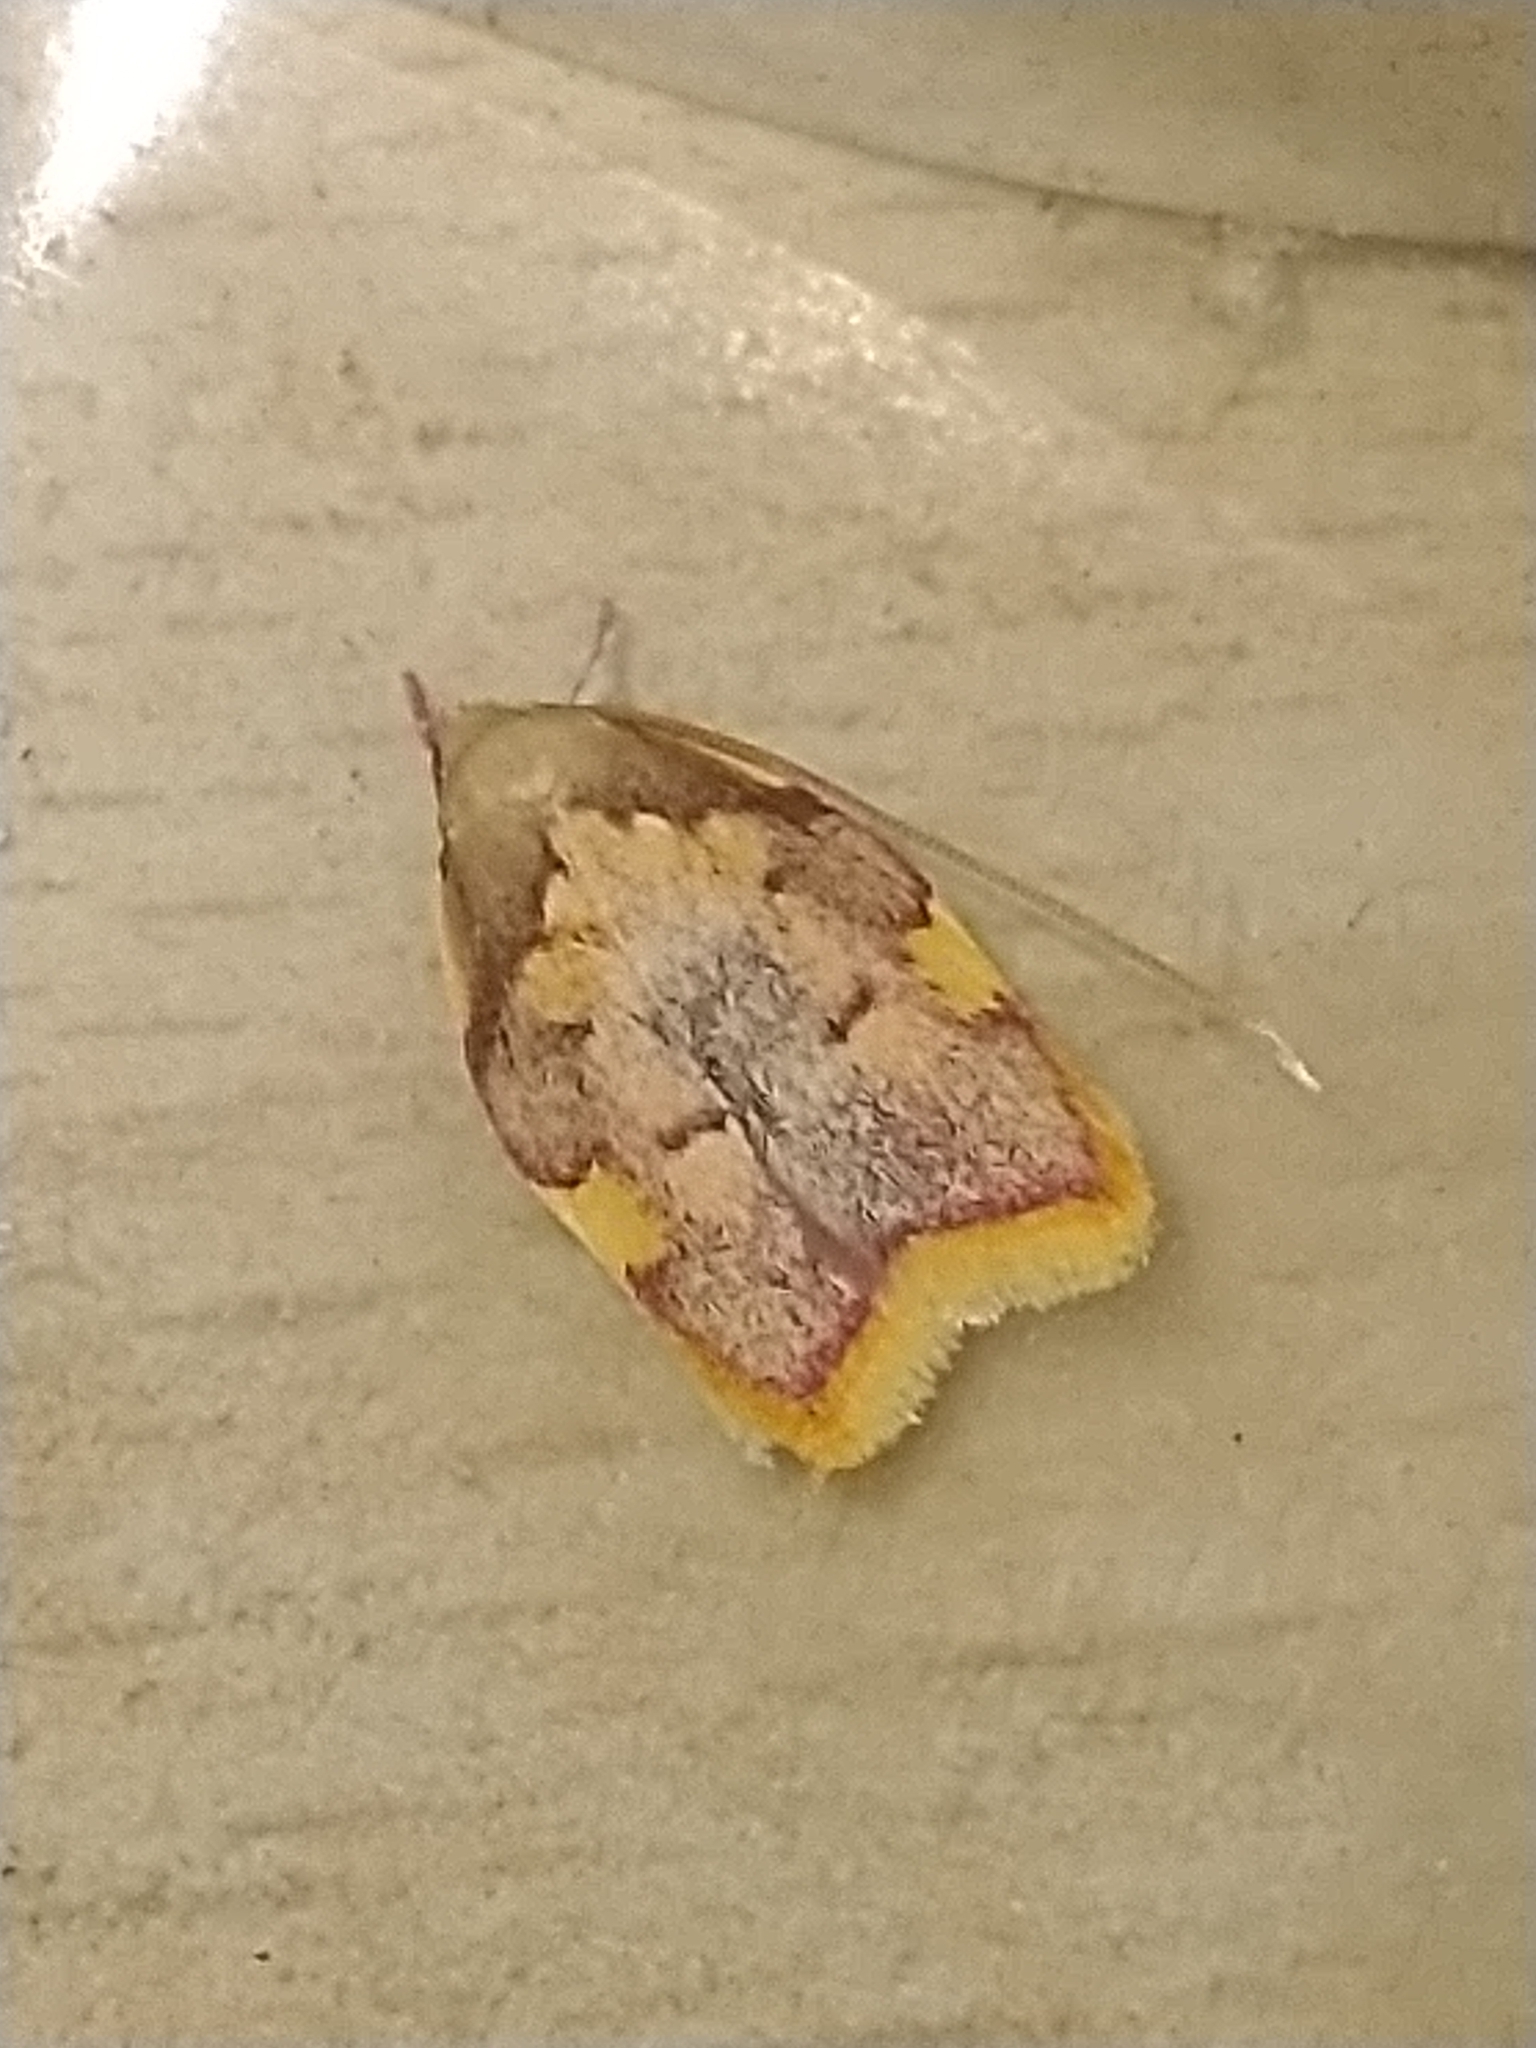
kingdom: Animalia
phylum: Arthropoda
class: Insecta
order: Lepidoptera
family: Peleopodidae
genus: Carcina
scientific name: Carcina quercana
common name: Moth
